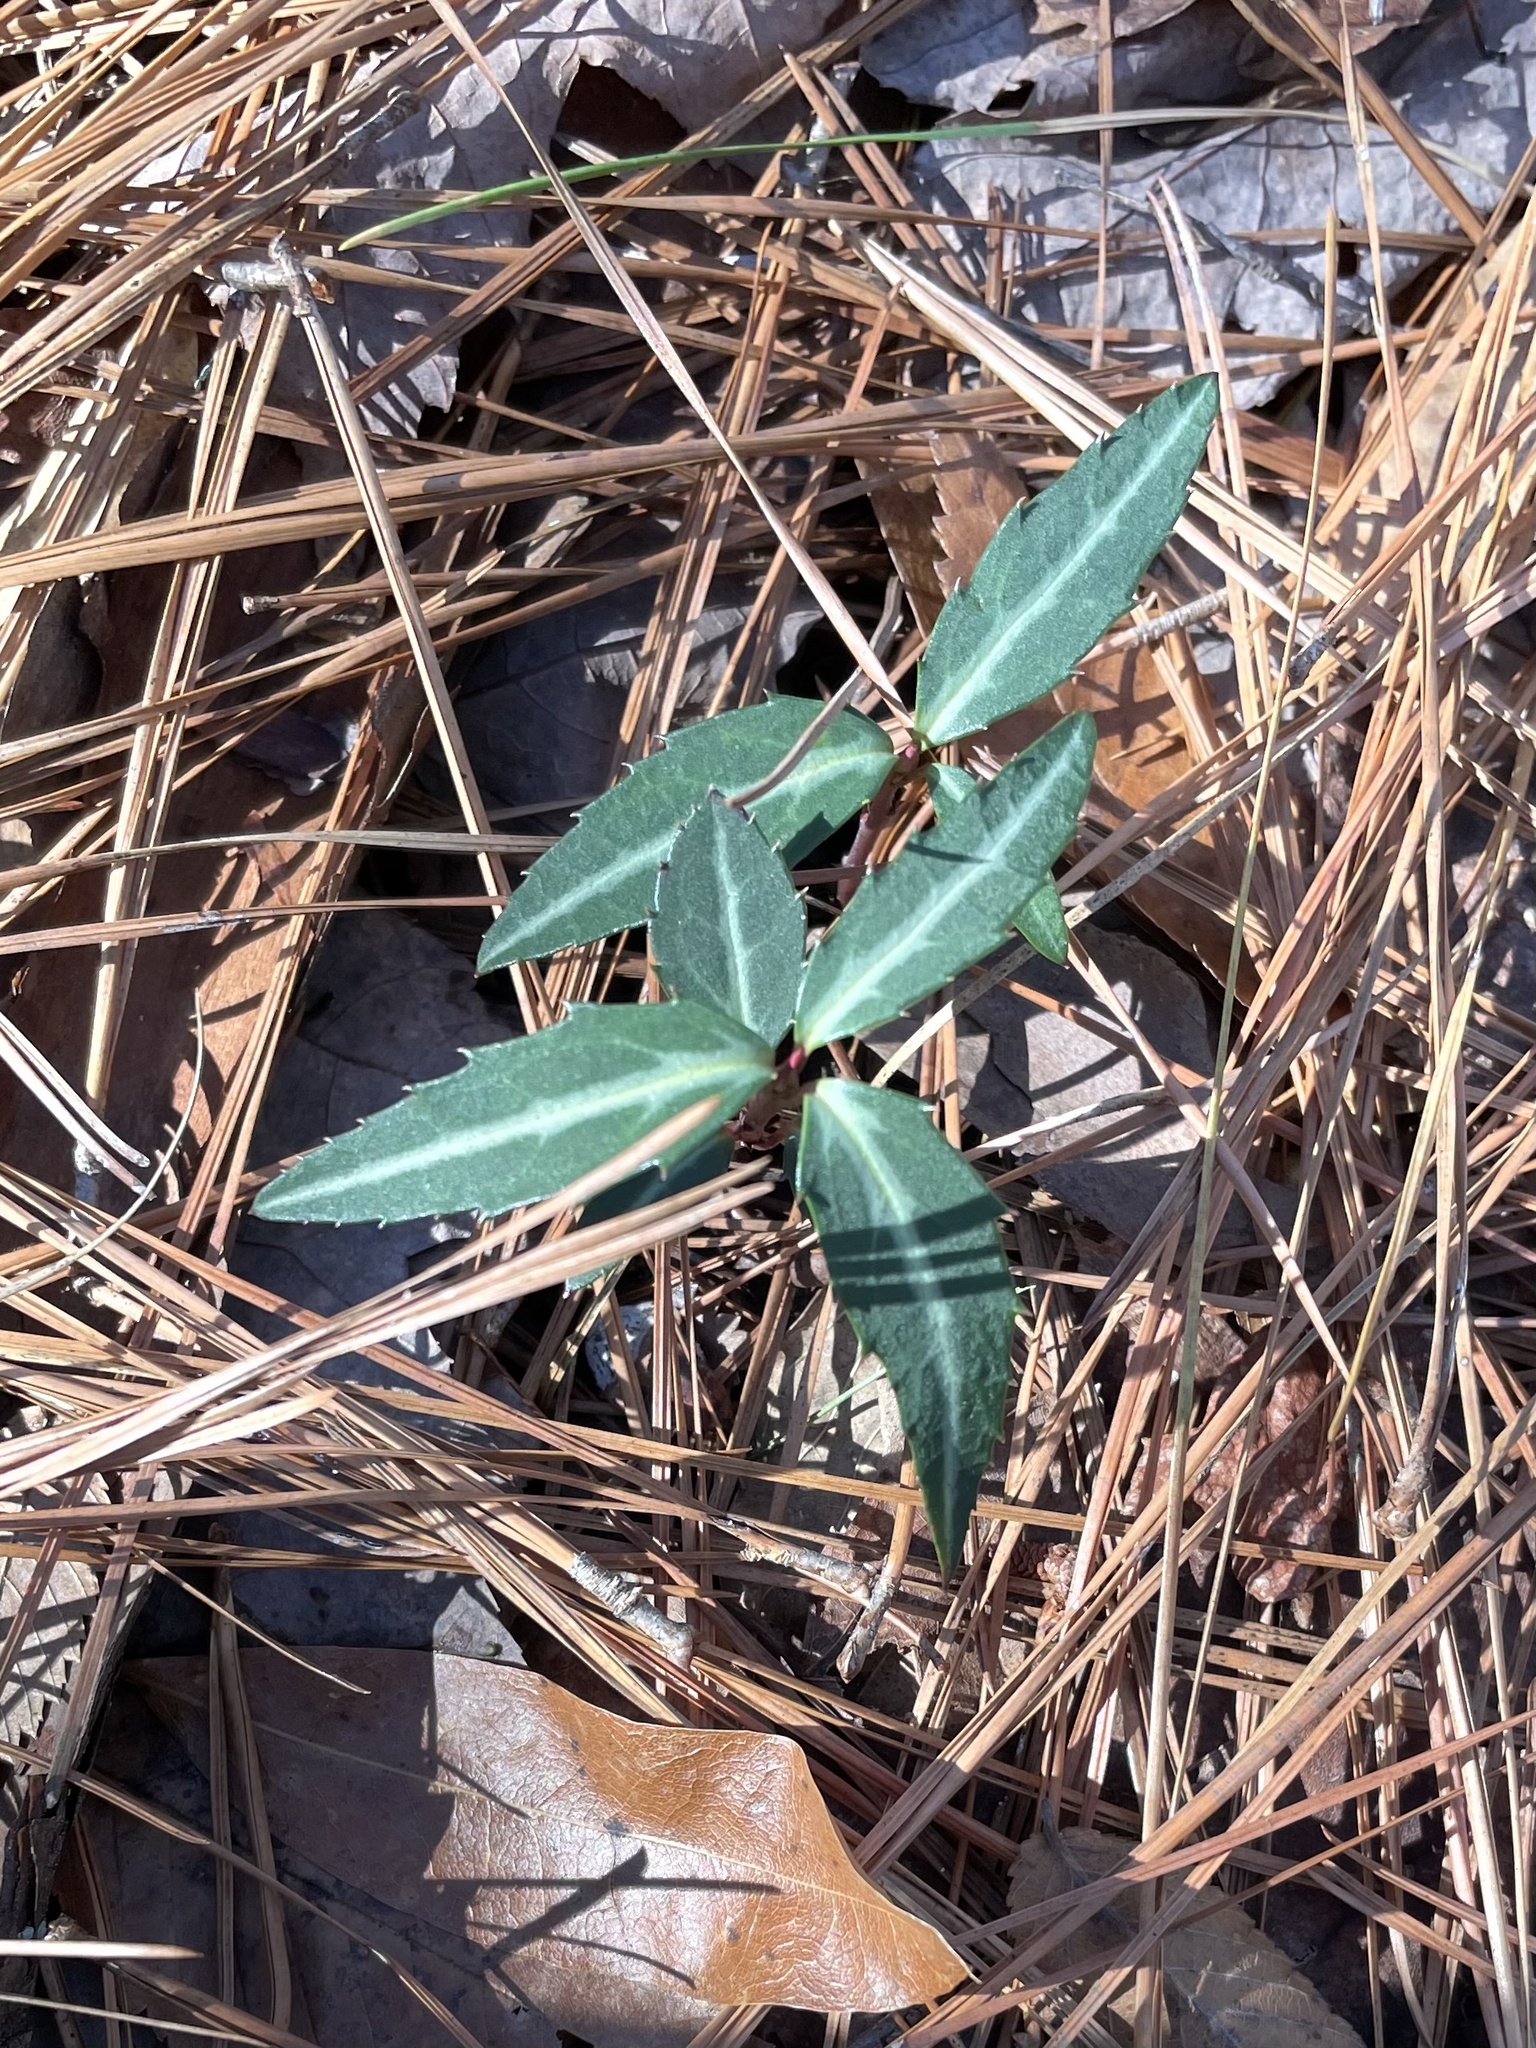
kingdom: Plantae
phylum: Tracheophyta
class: Magnoliopsida
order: Ericales
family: Ericaceae
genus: Chimaphila
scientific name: Chimaphila maculata
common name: Spotted pipsissewa
